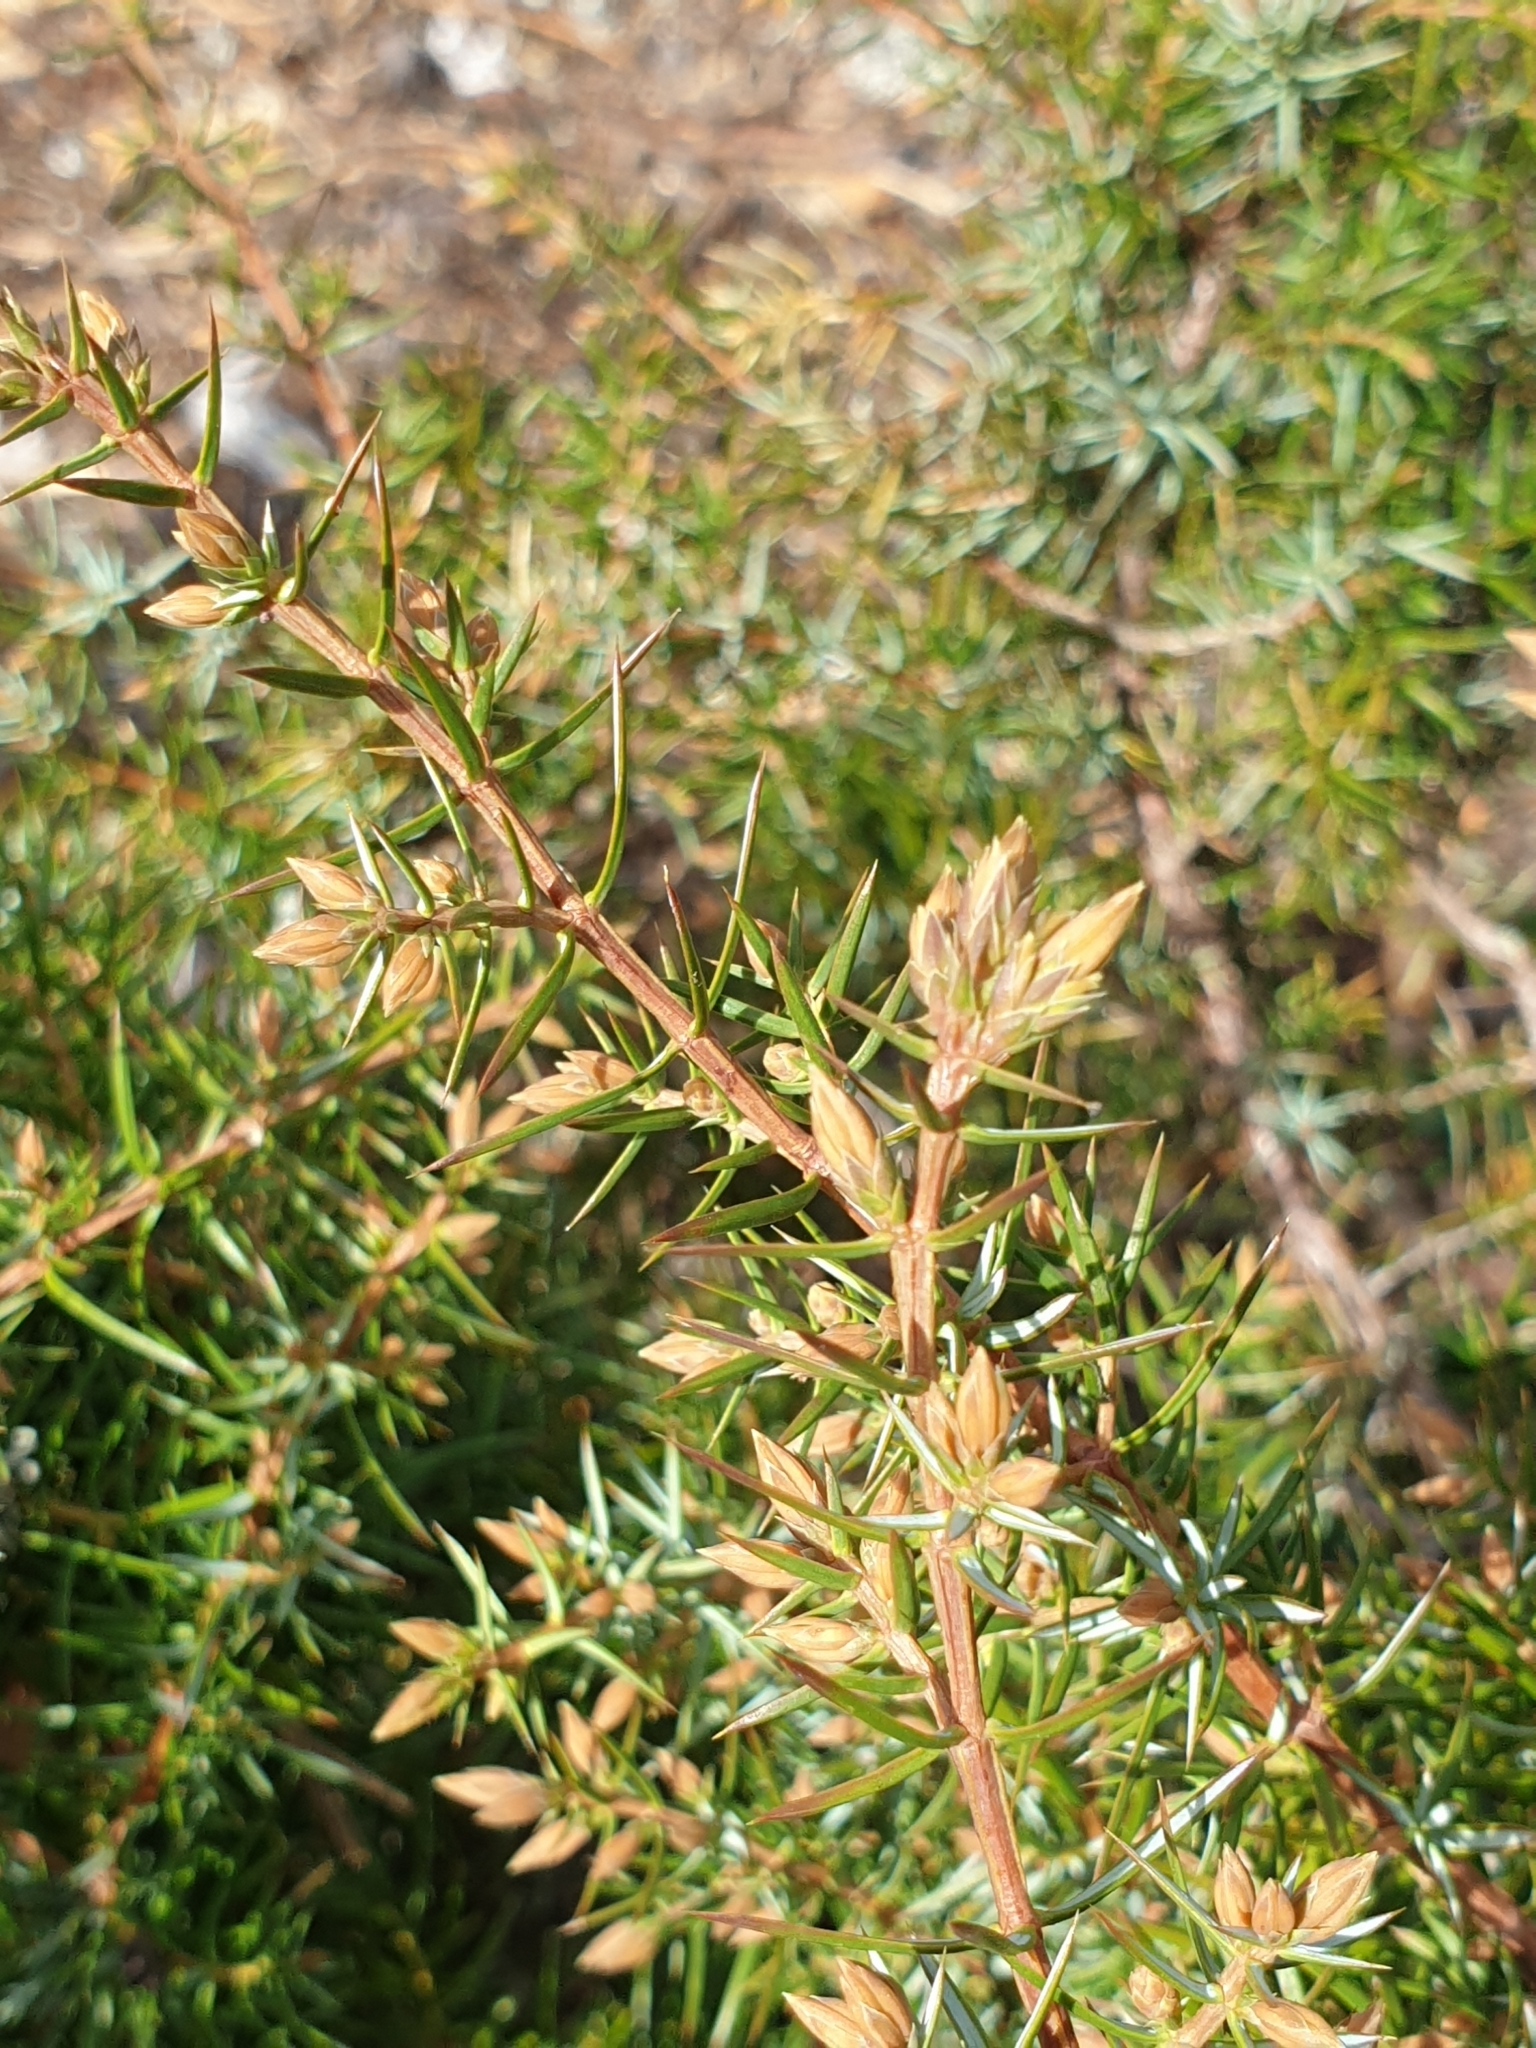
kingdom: Plantae
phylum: Tracheophyta
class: Pinopsida
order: Pinales
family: Cupressaceae
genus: Juniperus
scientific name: Juniperus communis
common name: Common juniper
